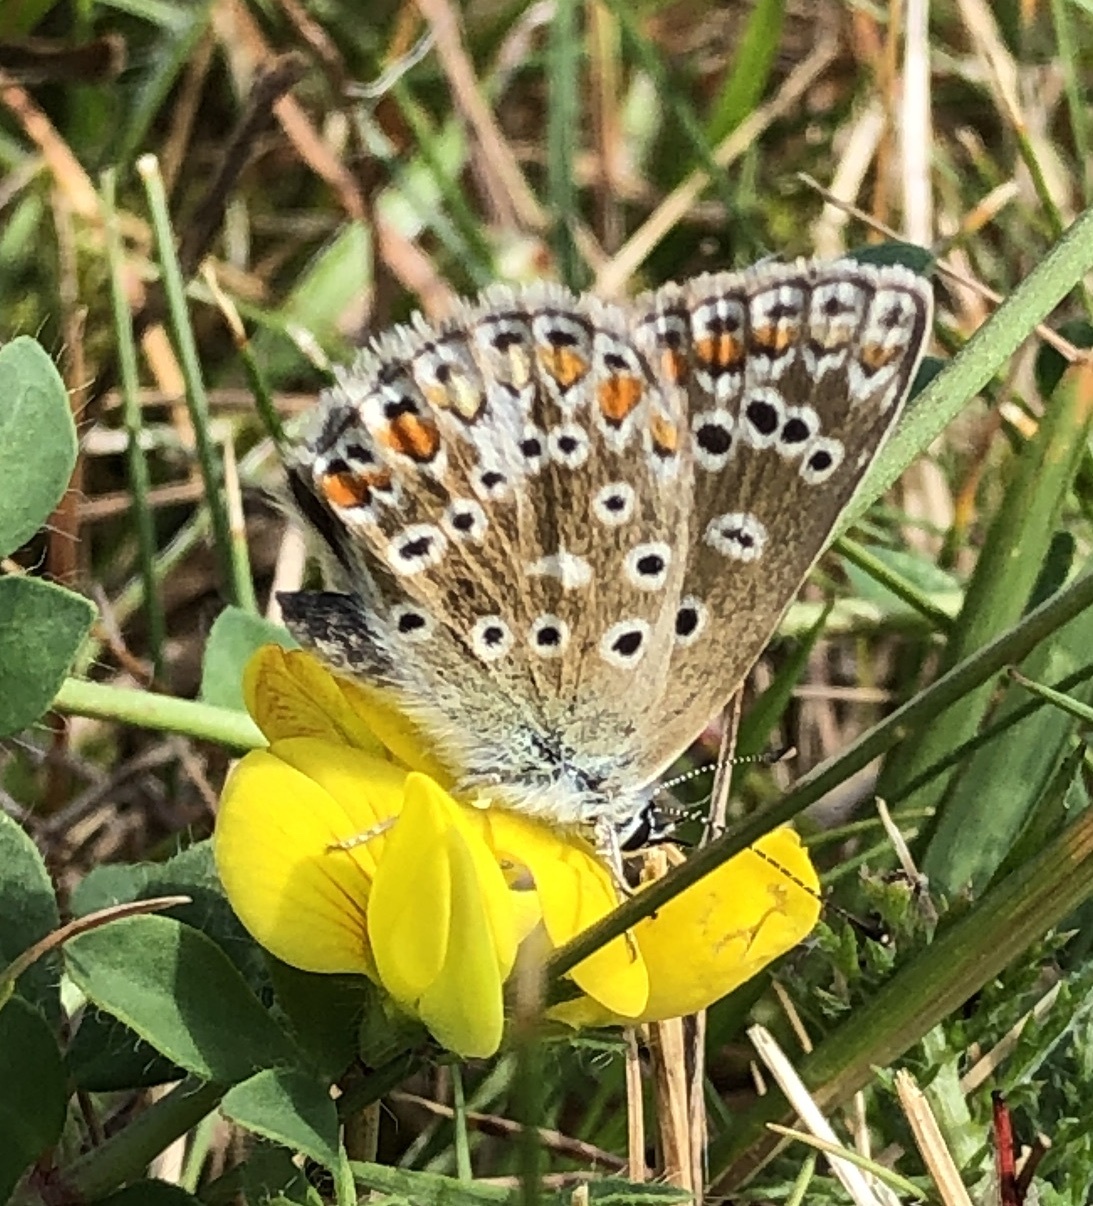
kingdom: Animalia
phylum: Arthropoda
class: Insecta
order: Lepidoptera
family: Lycaenidae
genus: Polyommatus
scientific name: Polyommatus icarus
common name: Common blue
